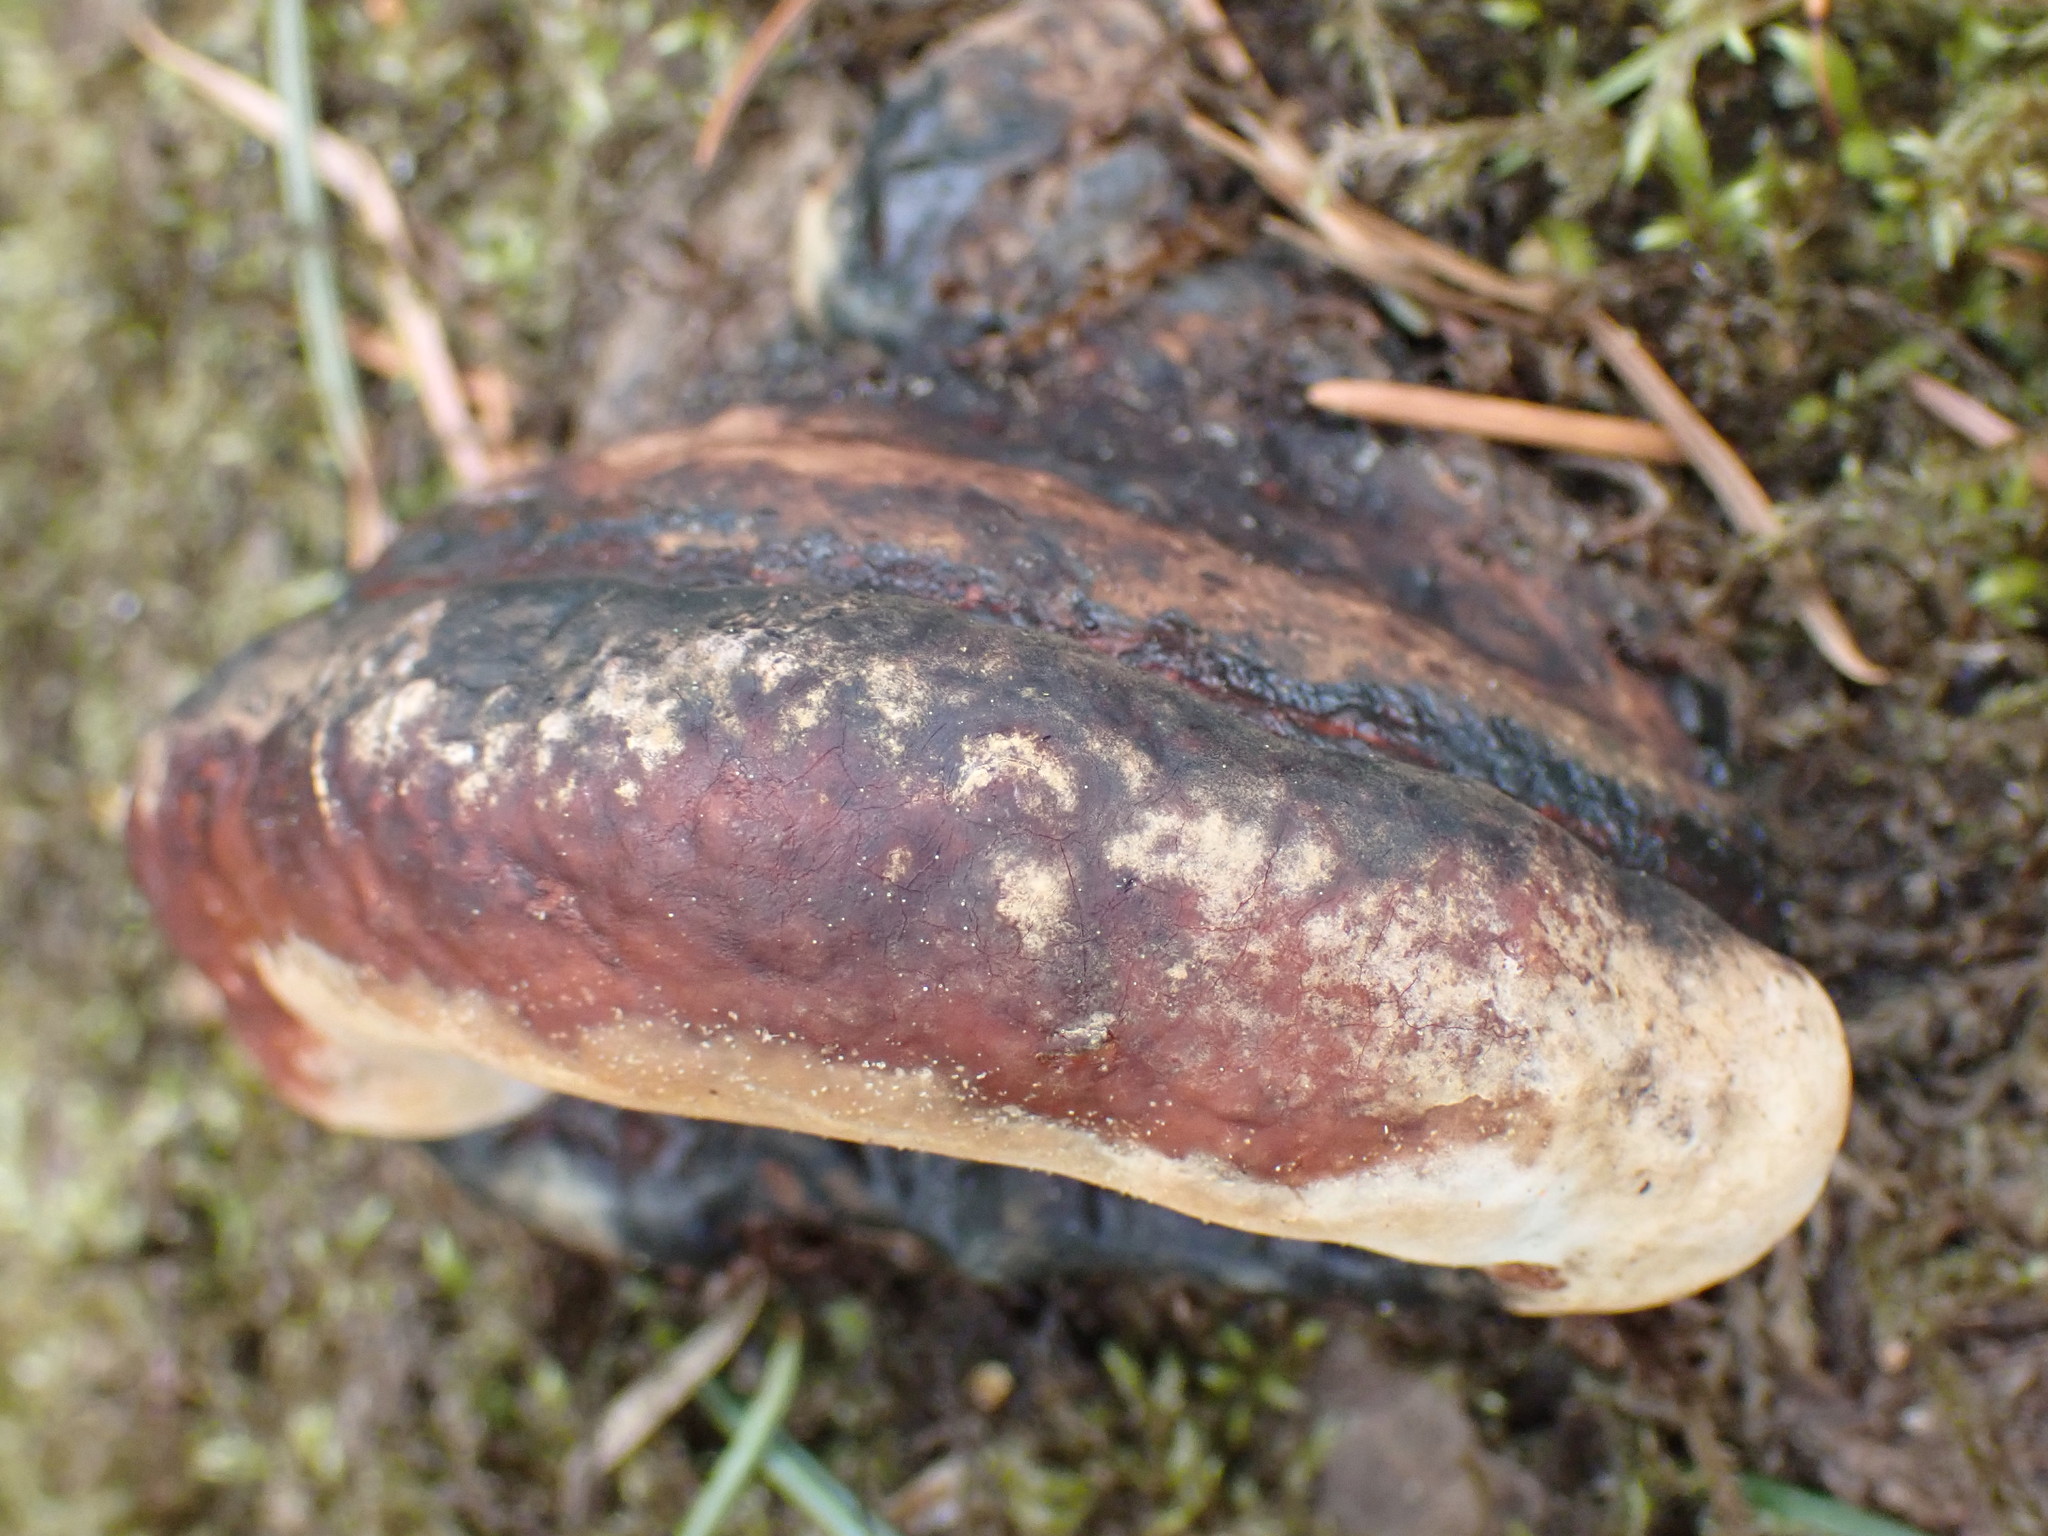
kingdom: Fungi
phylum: Basidiomycota
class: Agaricomycetes
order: Polyporales
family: Fomitopsidaceae
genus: Fomitopsis
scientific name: Fomitopsis mounceae
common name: Northern red belt
